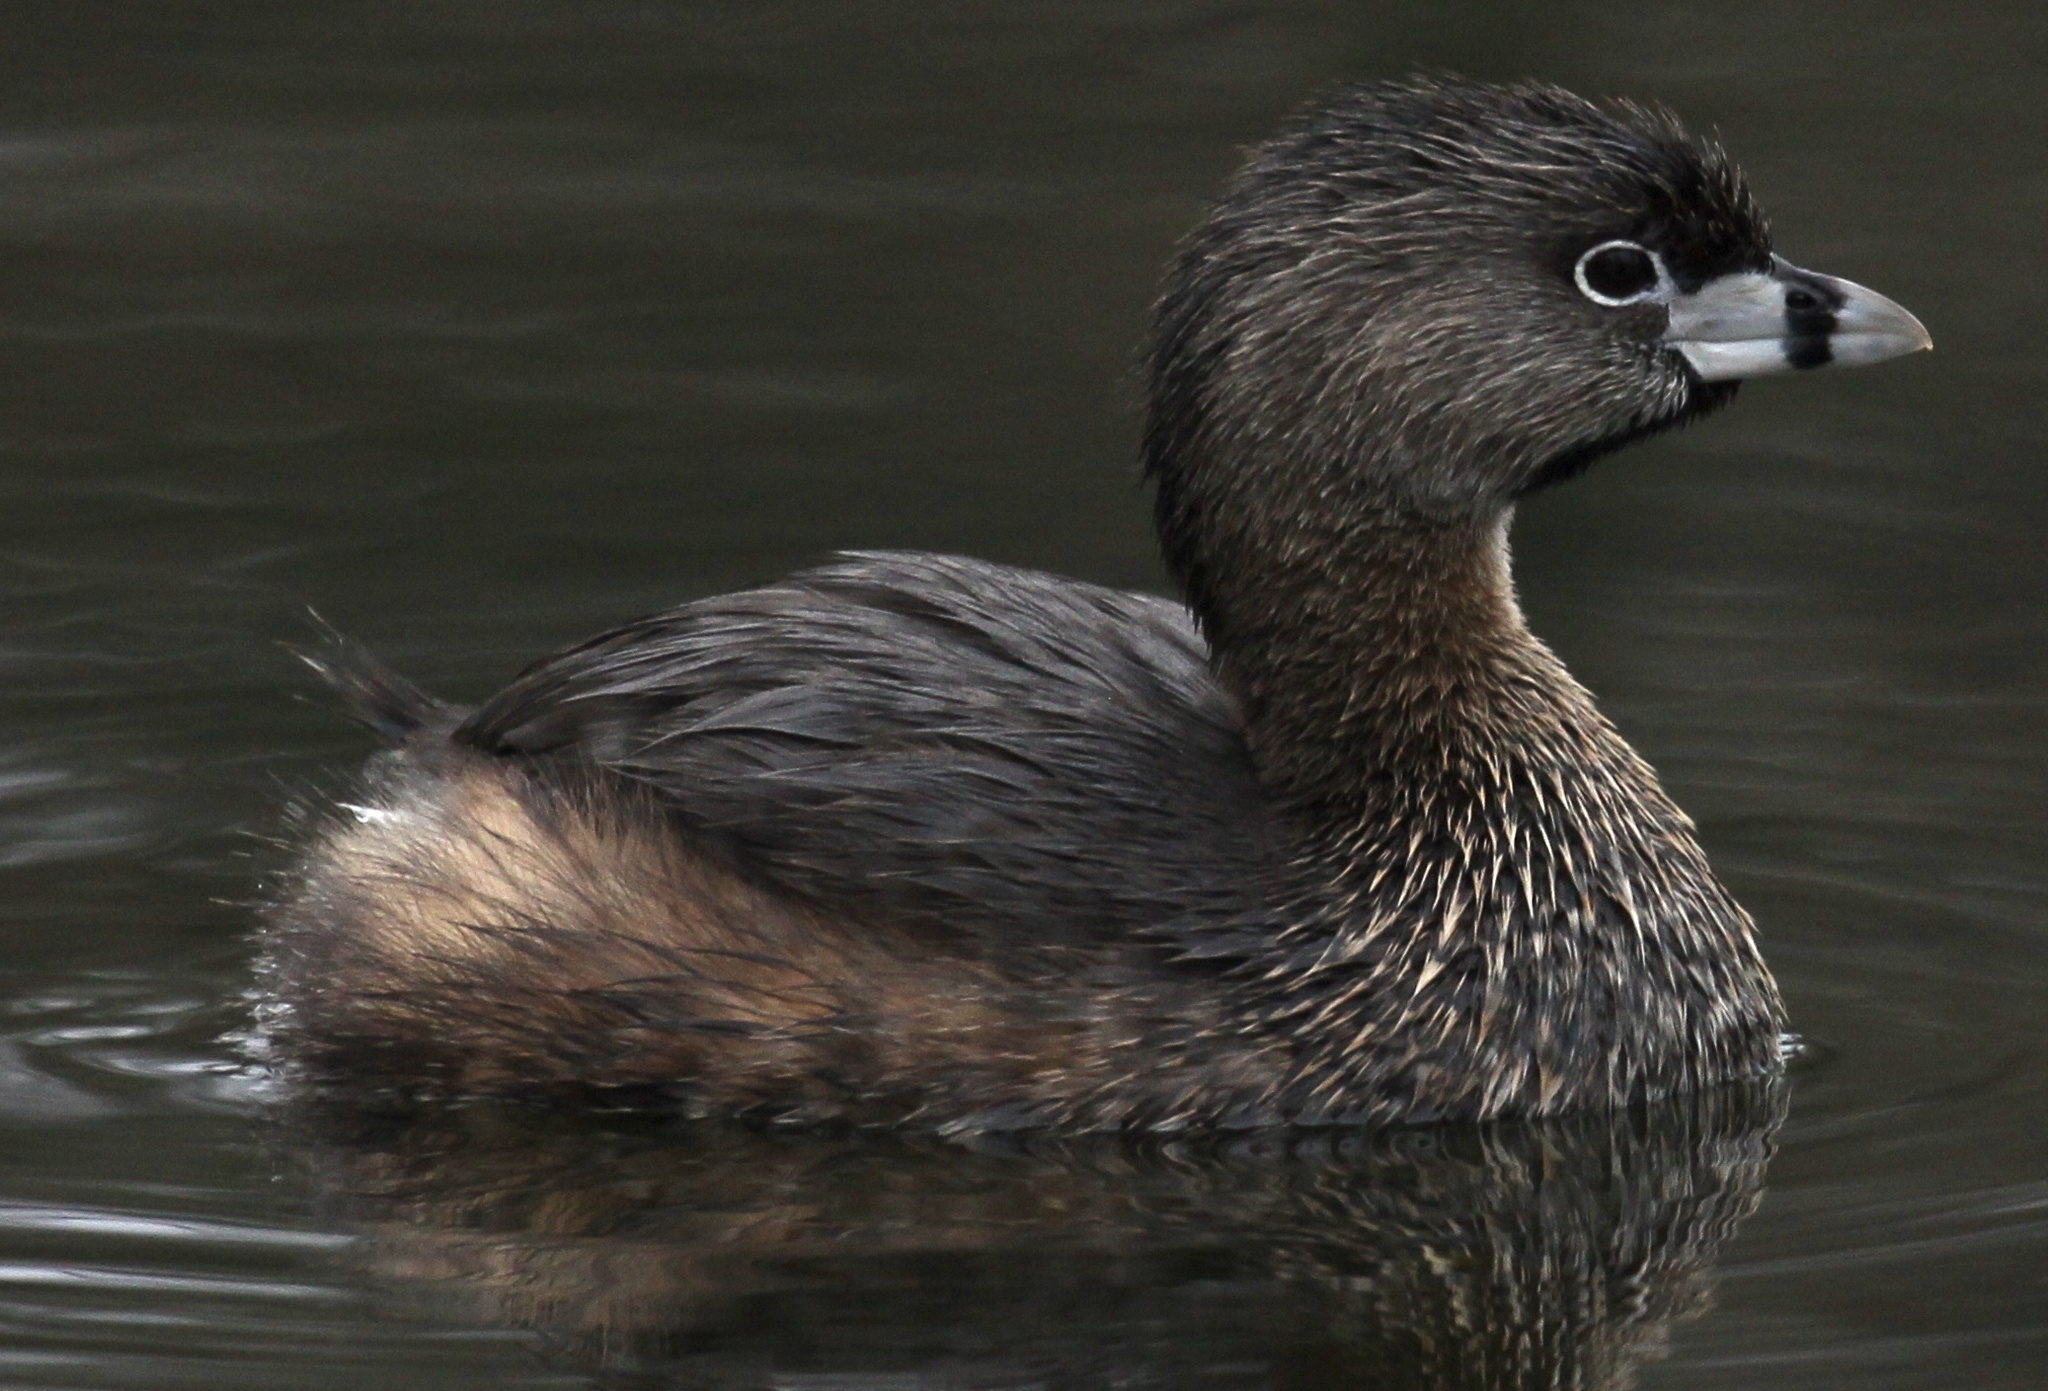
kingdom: Animalia
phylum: Chordata
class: Aves
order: Podicipediformes
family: Podicipedidae
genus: Podilymbus
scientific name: Podilymbus podiceps
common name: Pied-billed grebe
